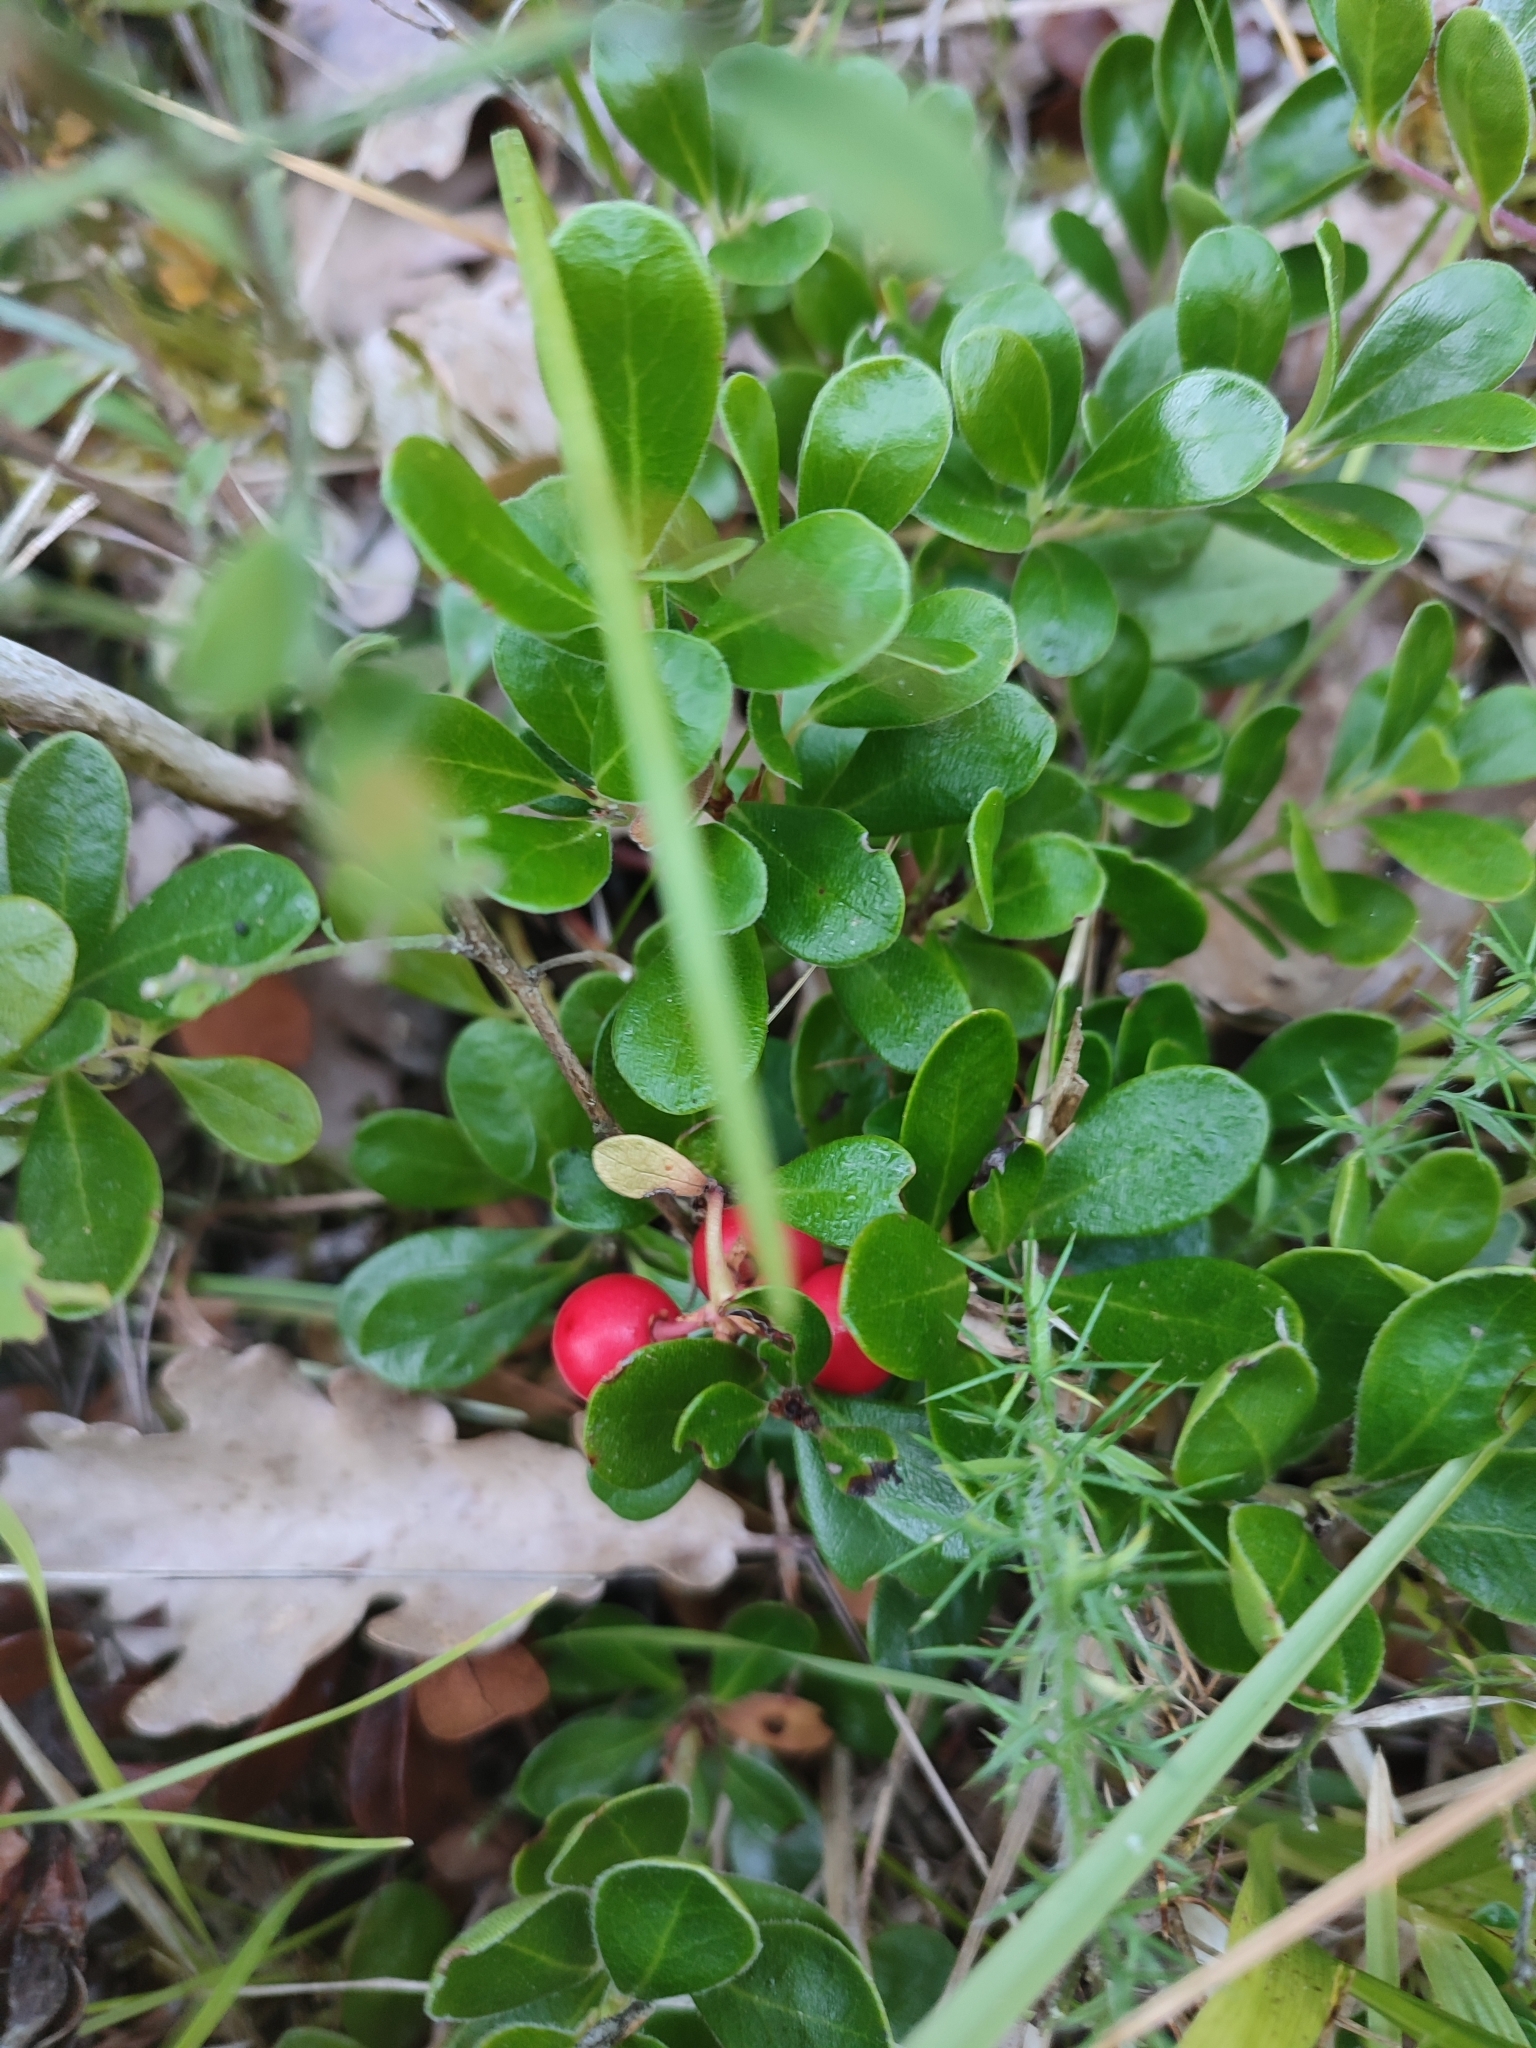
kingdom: Plantae
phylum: Tracheophyta
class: Magnoliopsida
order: Ericales
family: Ericaceae
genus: Arctostaphylos
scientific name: Arctostaphylos uva-ursi
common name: Bearberry
